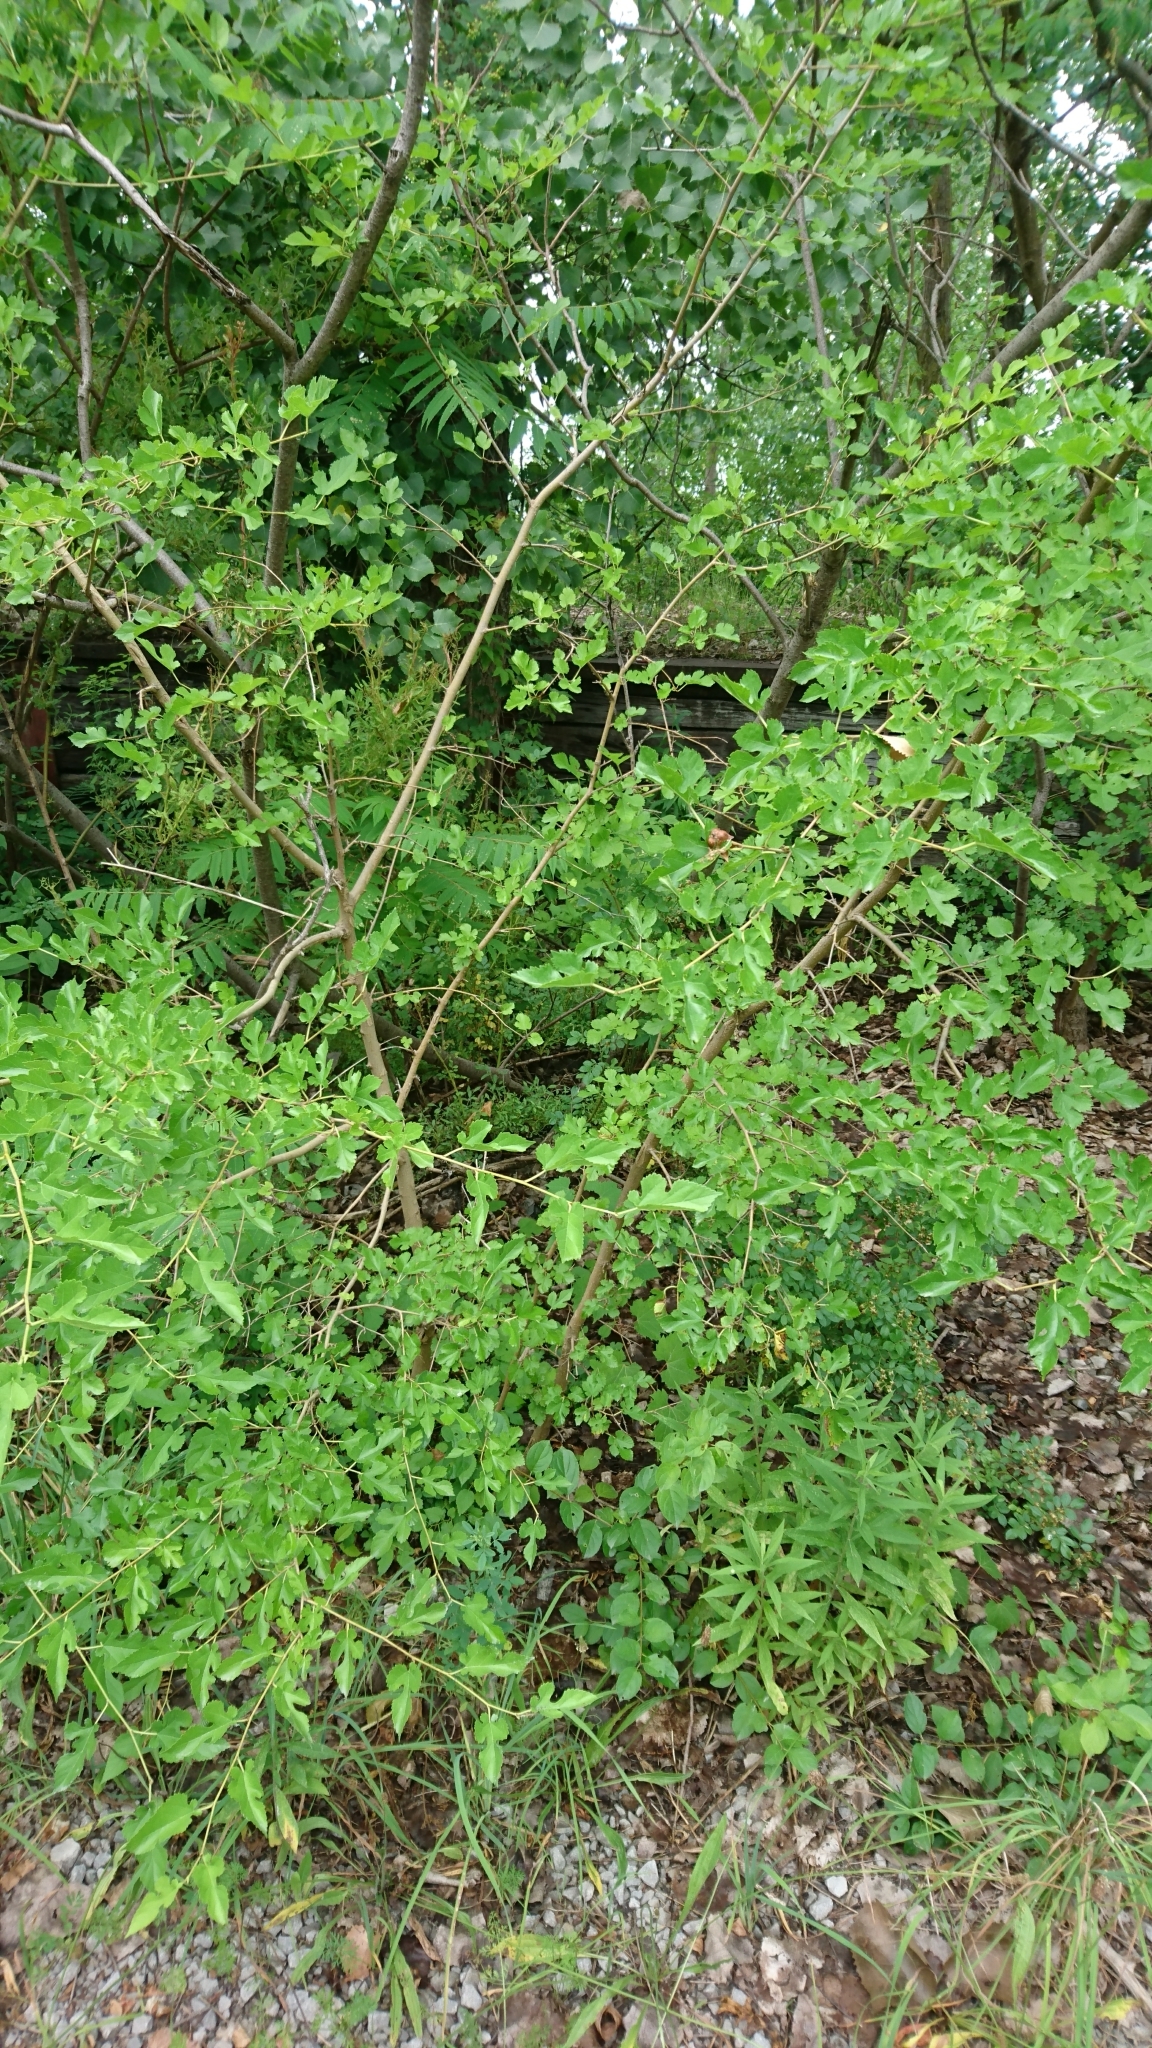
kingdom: Plantae
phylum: Tracheophyta
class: Magnoliopsida
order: Rosales
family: Moraceae
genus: Morus
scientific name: Morus alba
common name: White mulberry
